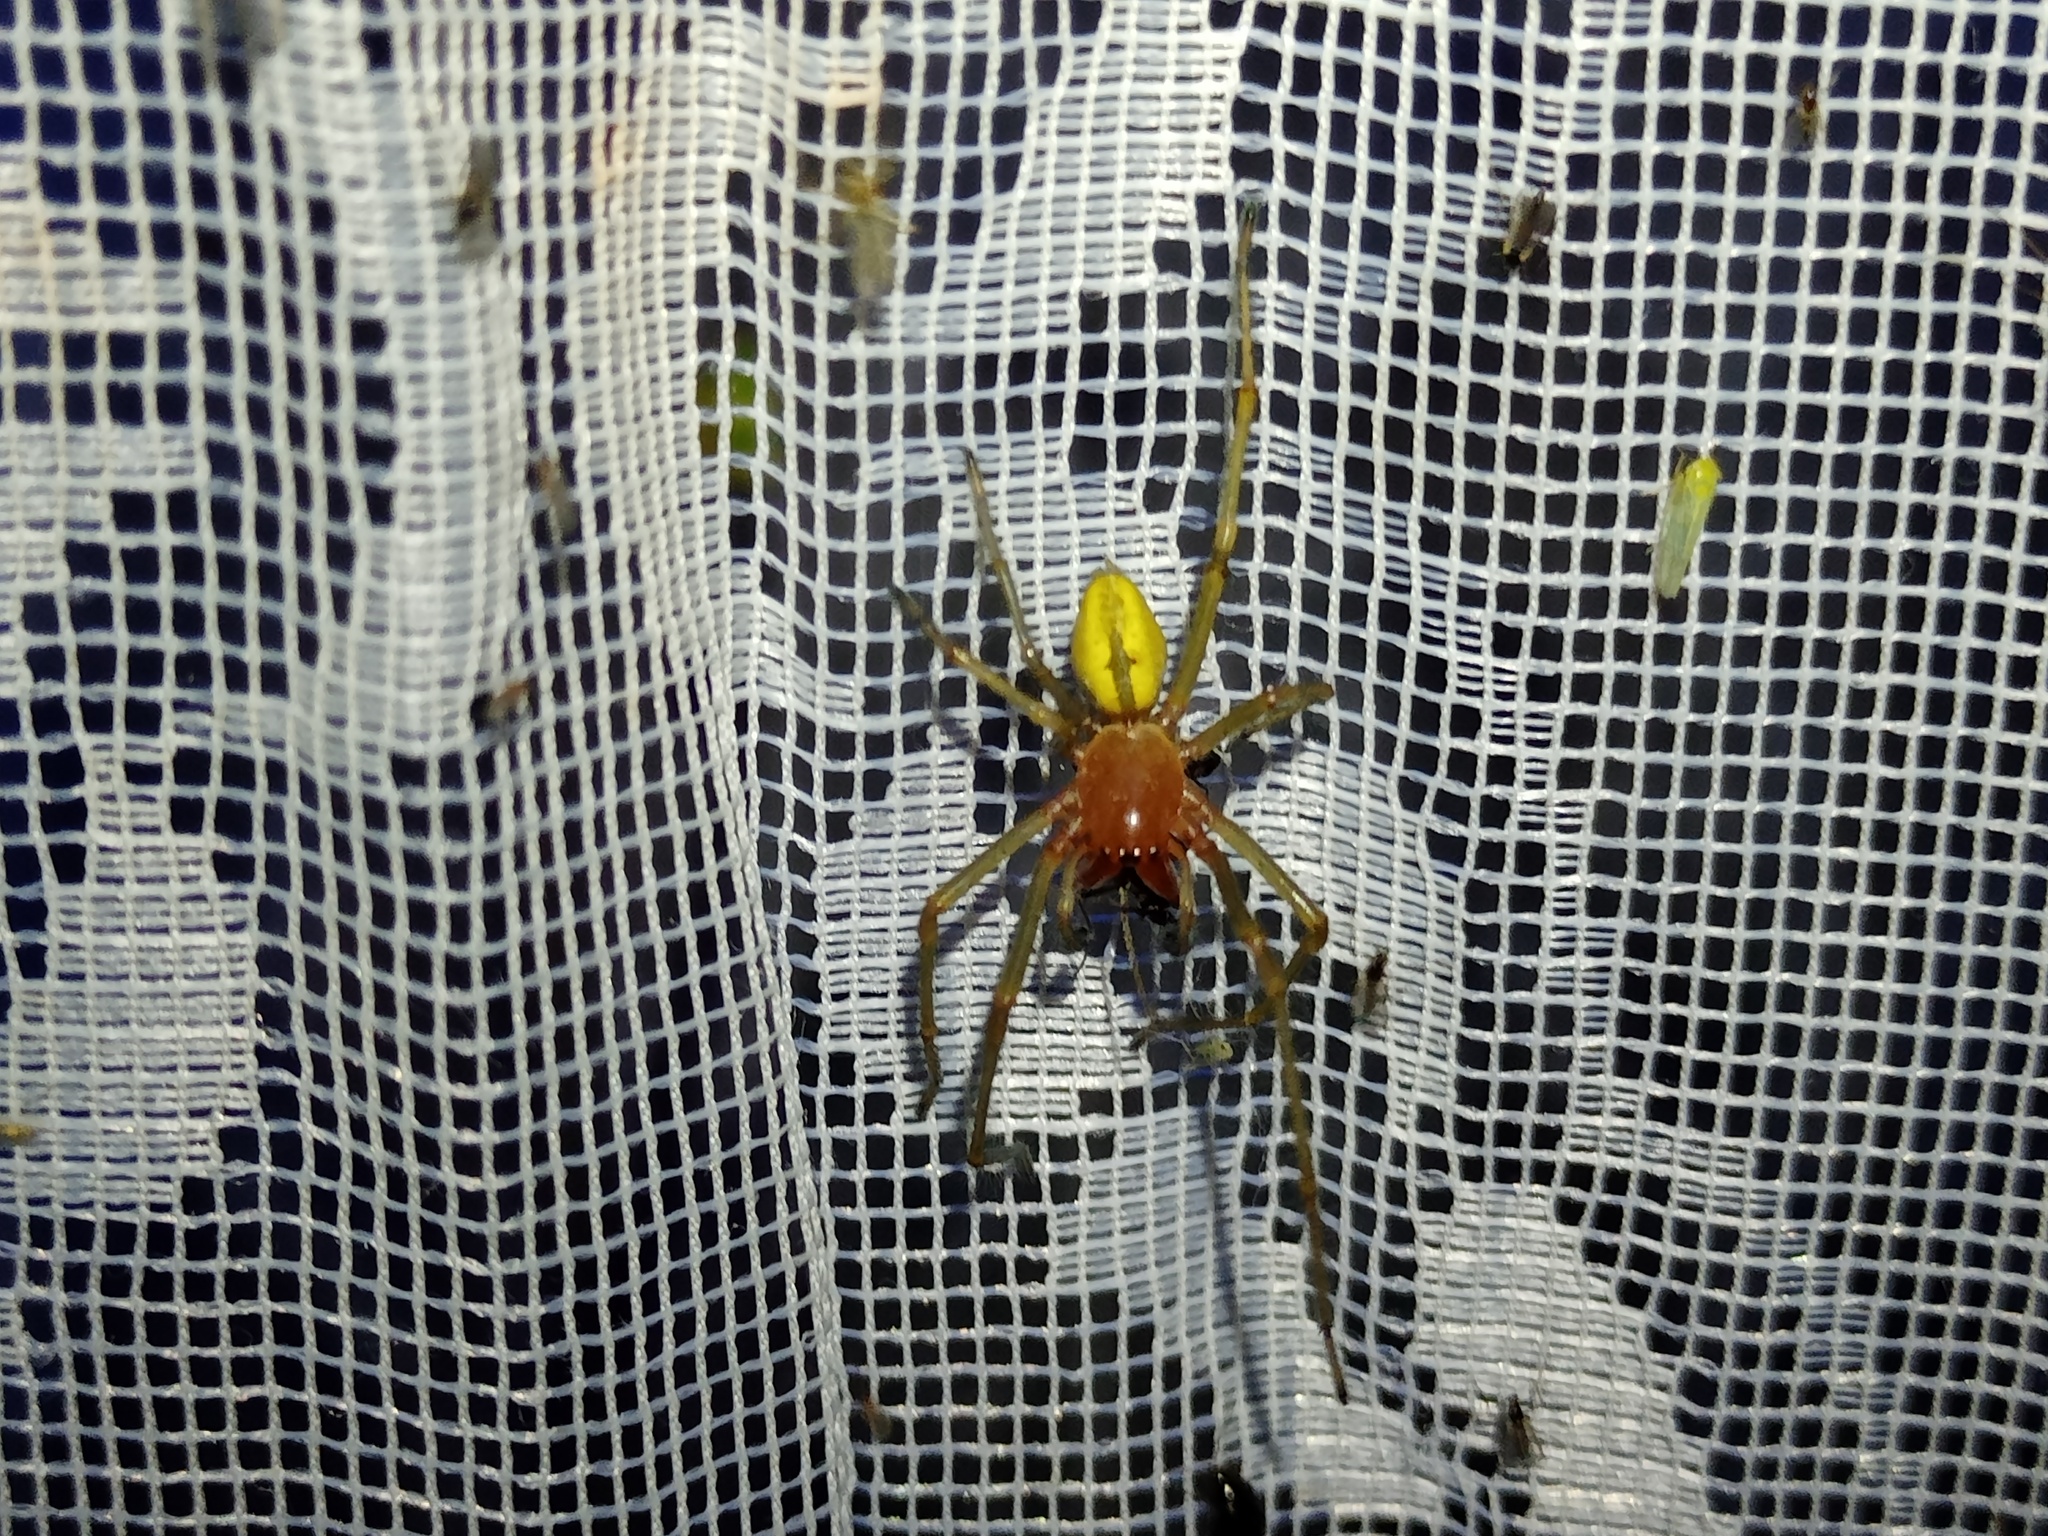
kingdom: Animalia
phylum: Arthropoda
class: Arachnida
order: Araneae
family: Cheiracanthiidae
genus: Cheiracanthium
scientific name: Cheiracanthium punctorium
